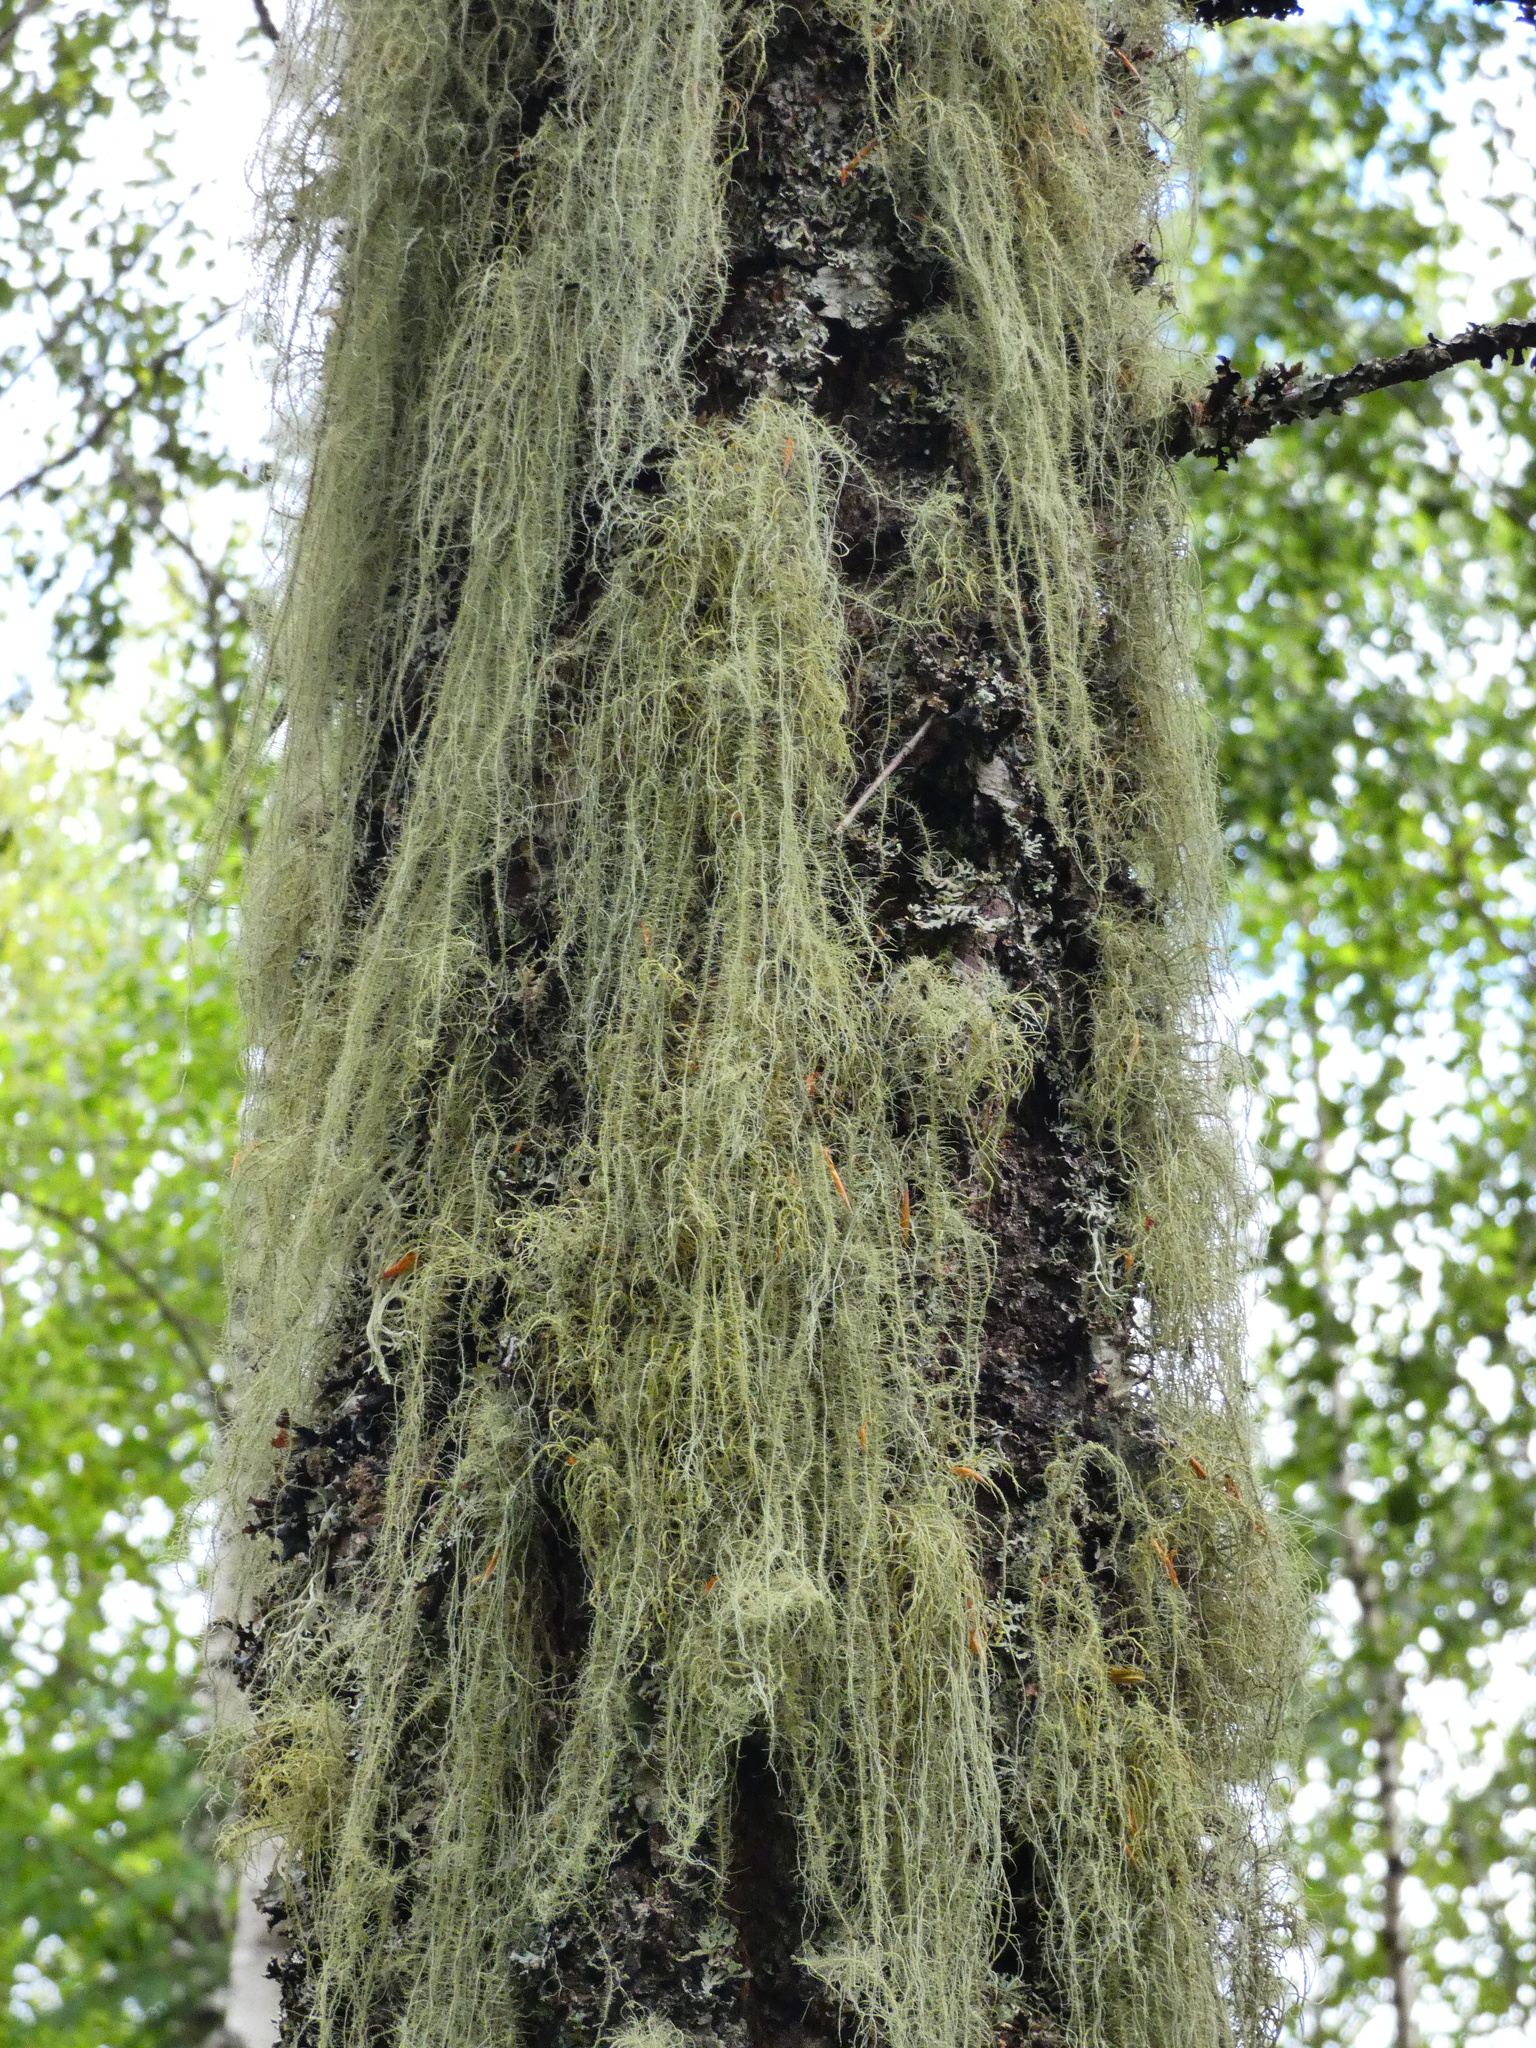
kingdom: Fungi
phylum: Ascomycota
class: Lecanoromycetes
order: Lecanorales
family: Parmeliaceae
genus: Usnea
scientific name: Usnea dasopoga
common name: Fishbone beard lichen
